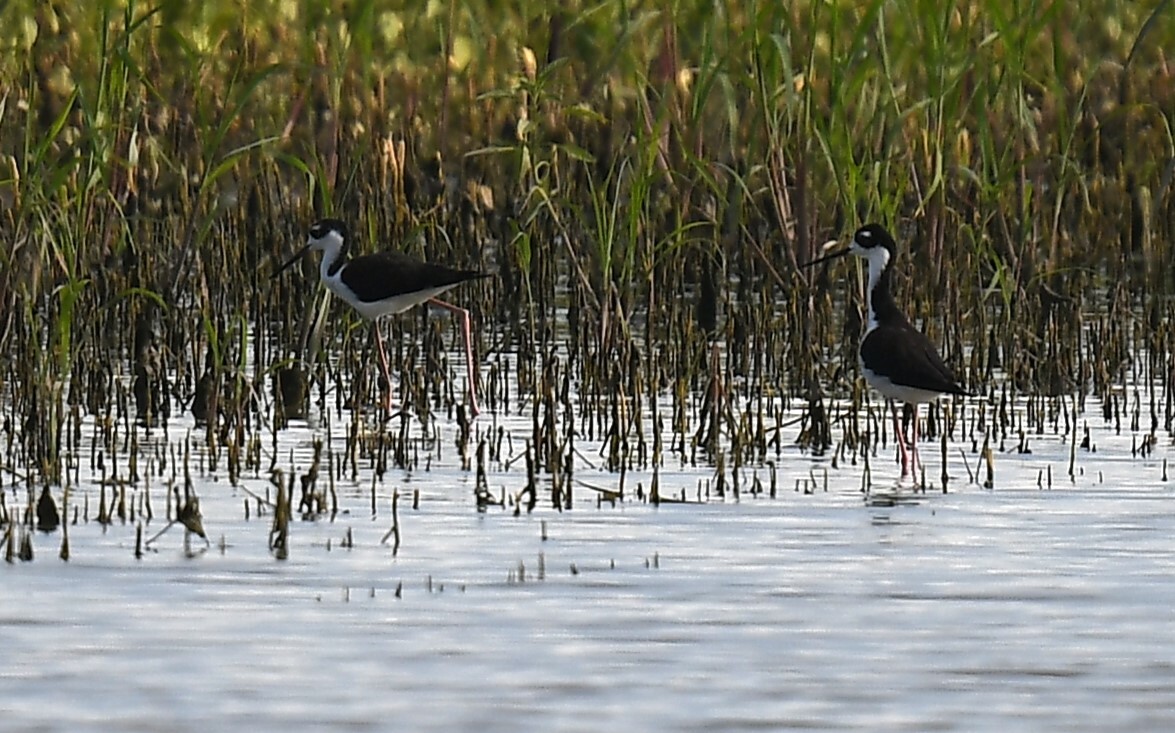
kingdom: Animalia
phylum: Chordata
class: Aves
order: Charadriiformes
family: Recurvirostridae
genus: Himantopus
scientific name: Himantopus mexicanus
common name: Black-necked stilt
